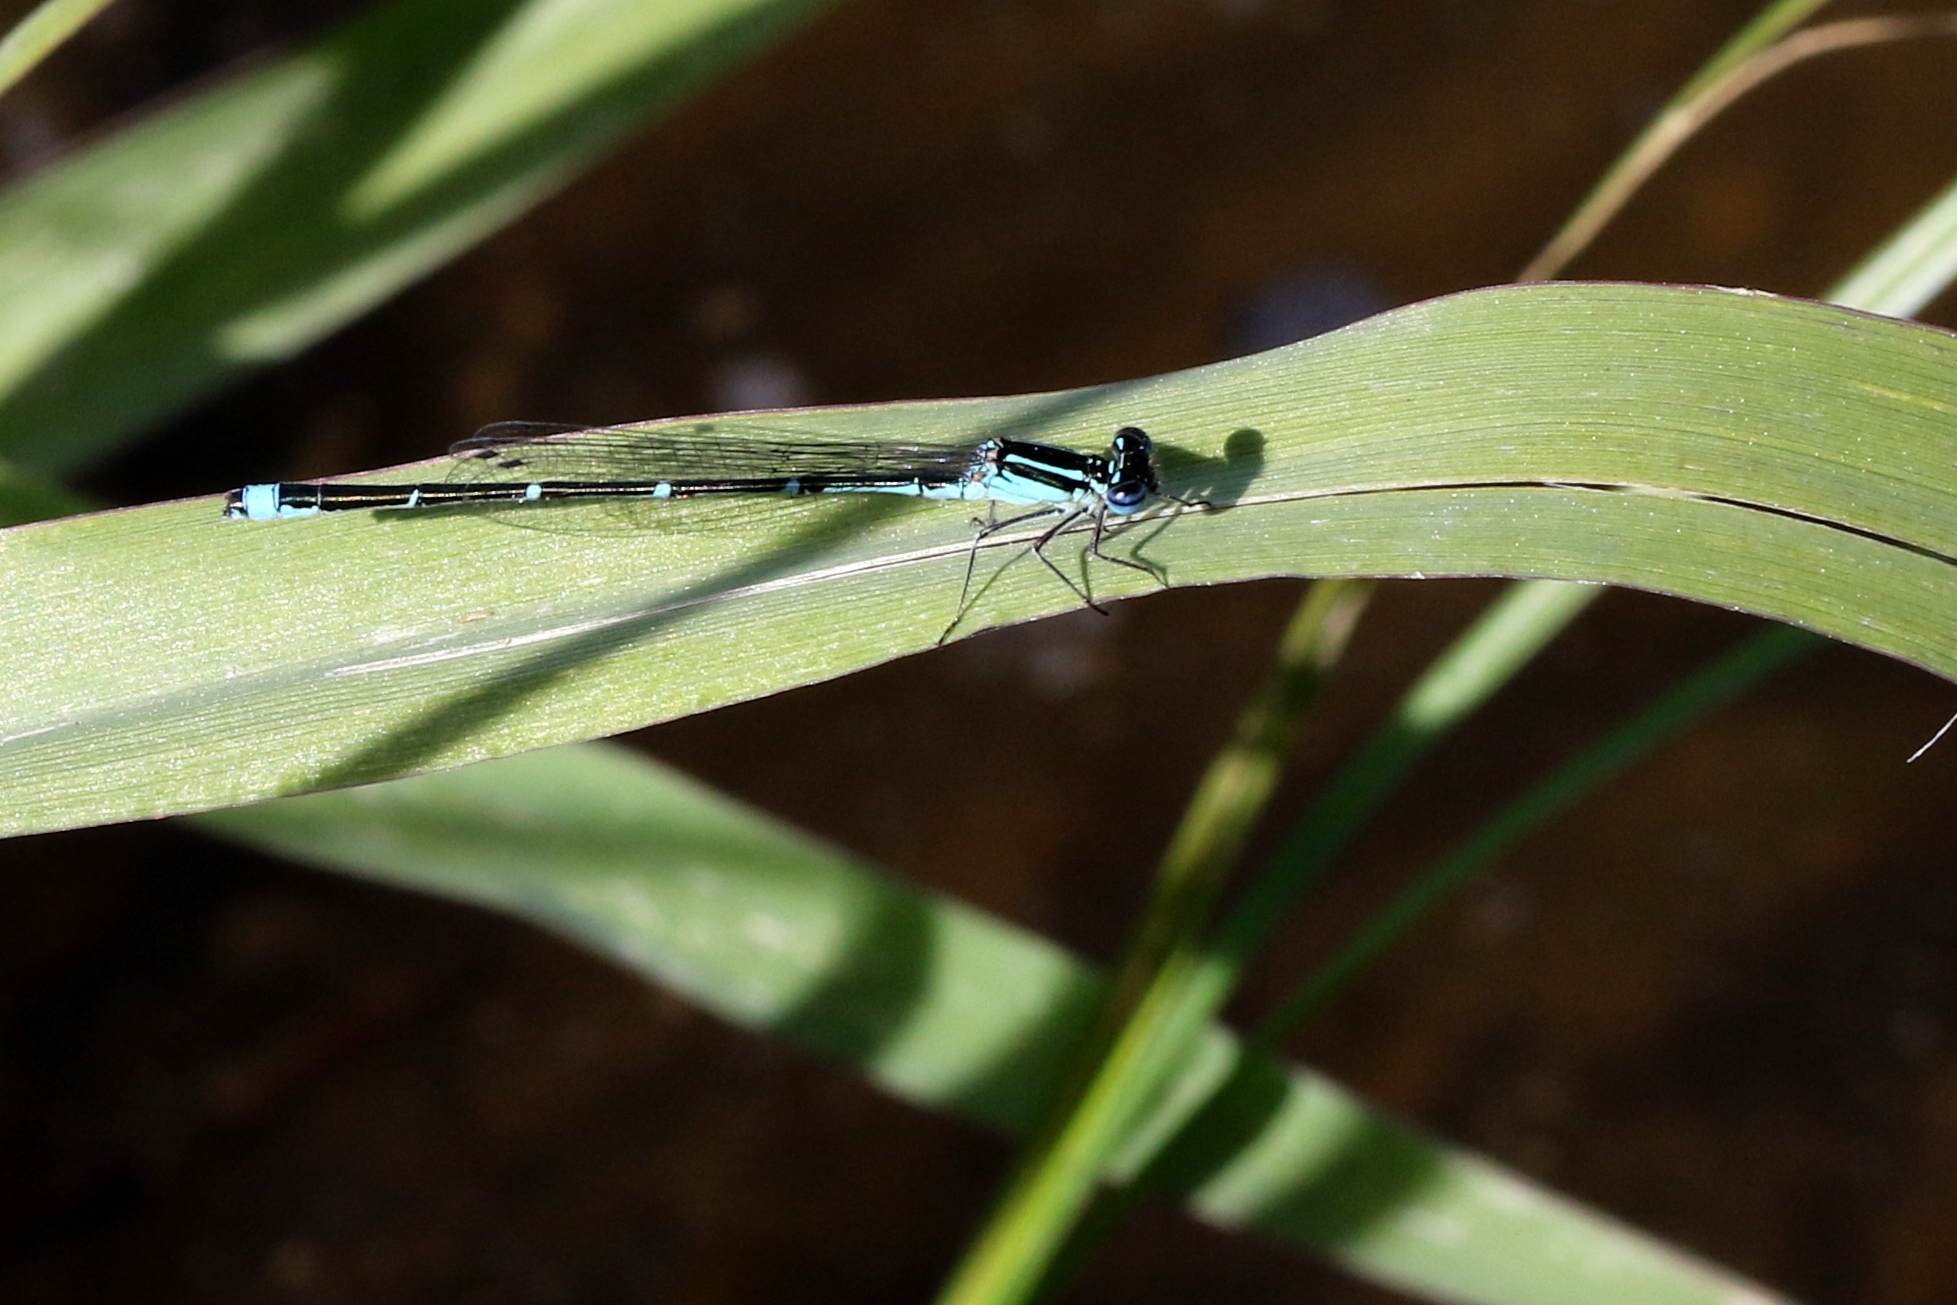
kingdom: Animalia
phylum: Arthropoda
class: Insecta
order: Odonata
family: Coenagrionidae
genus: Enallagma
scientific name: Enallagma exsulans
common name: Stream bluet
